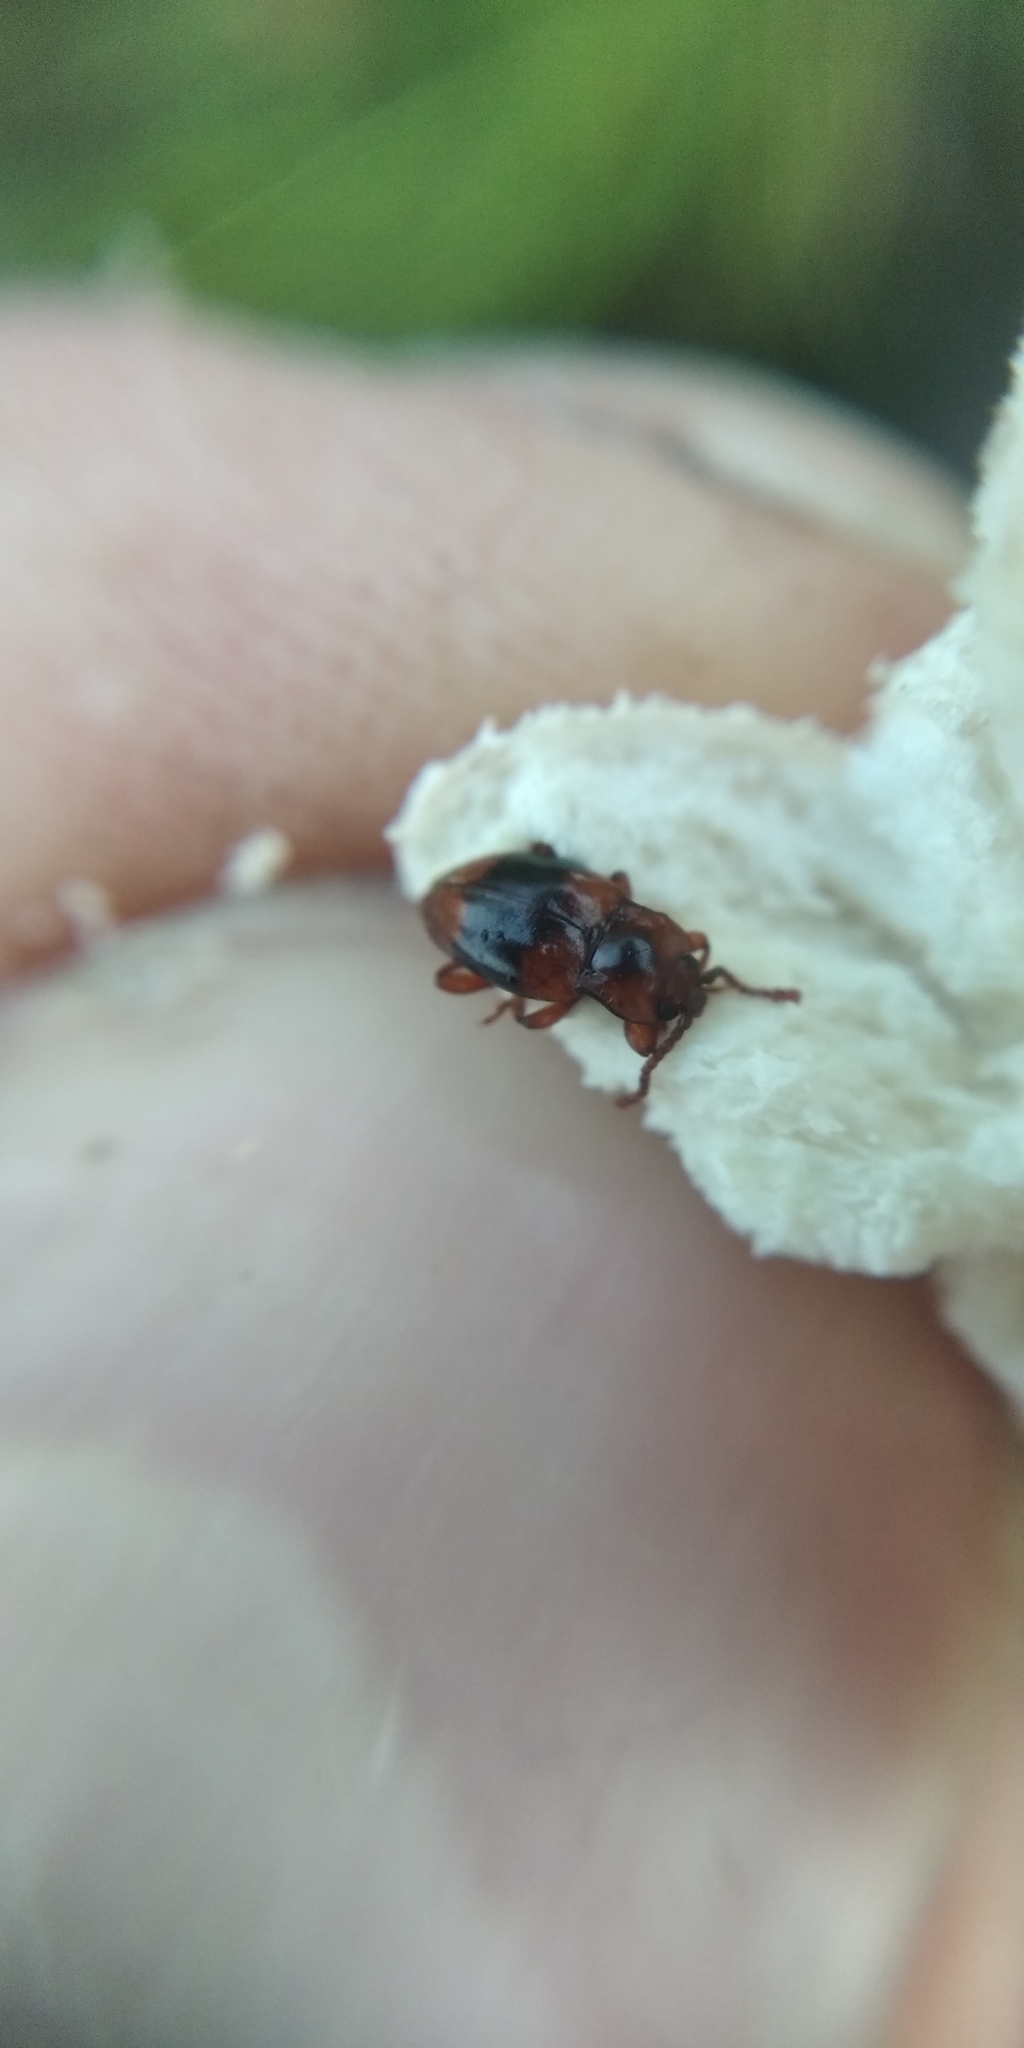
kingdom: Animalia
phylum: Arthropoda
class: Insecta
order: Coleoptera
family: Endomychidae
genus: Lycoperdina
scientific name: Lycoperdina succincta
